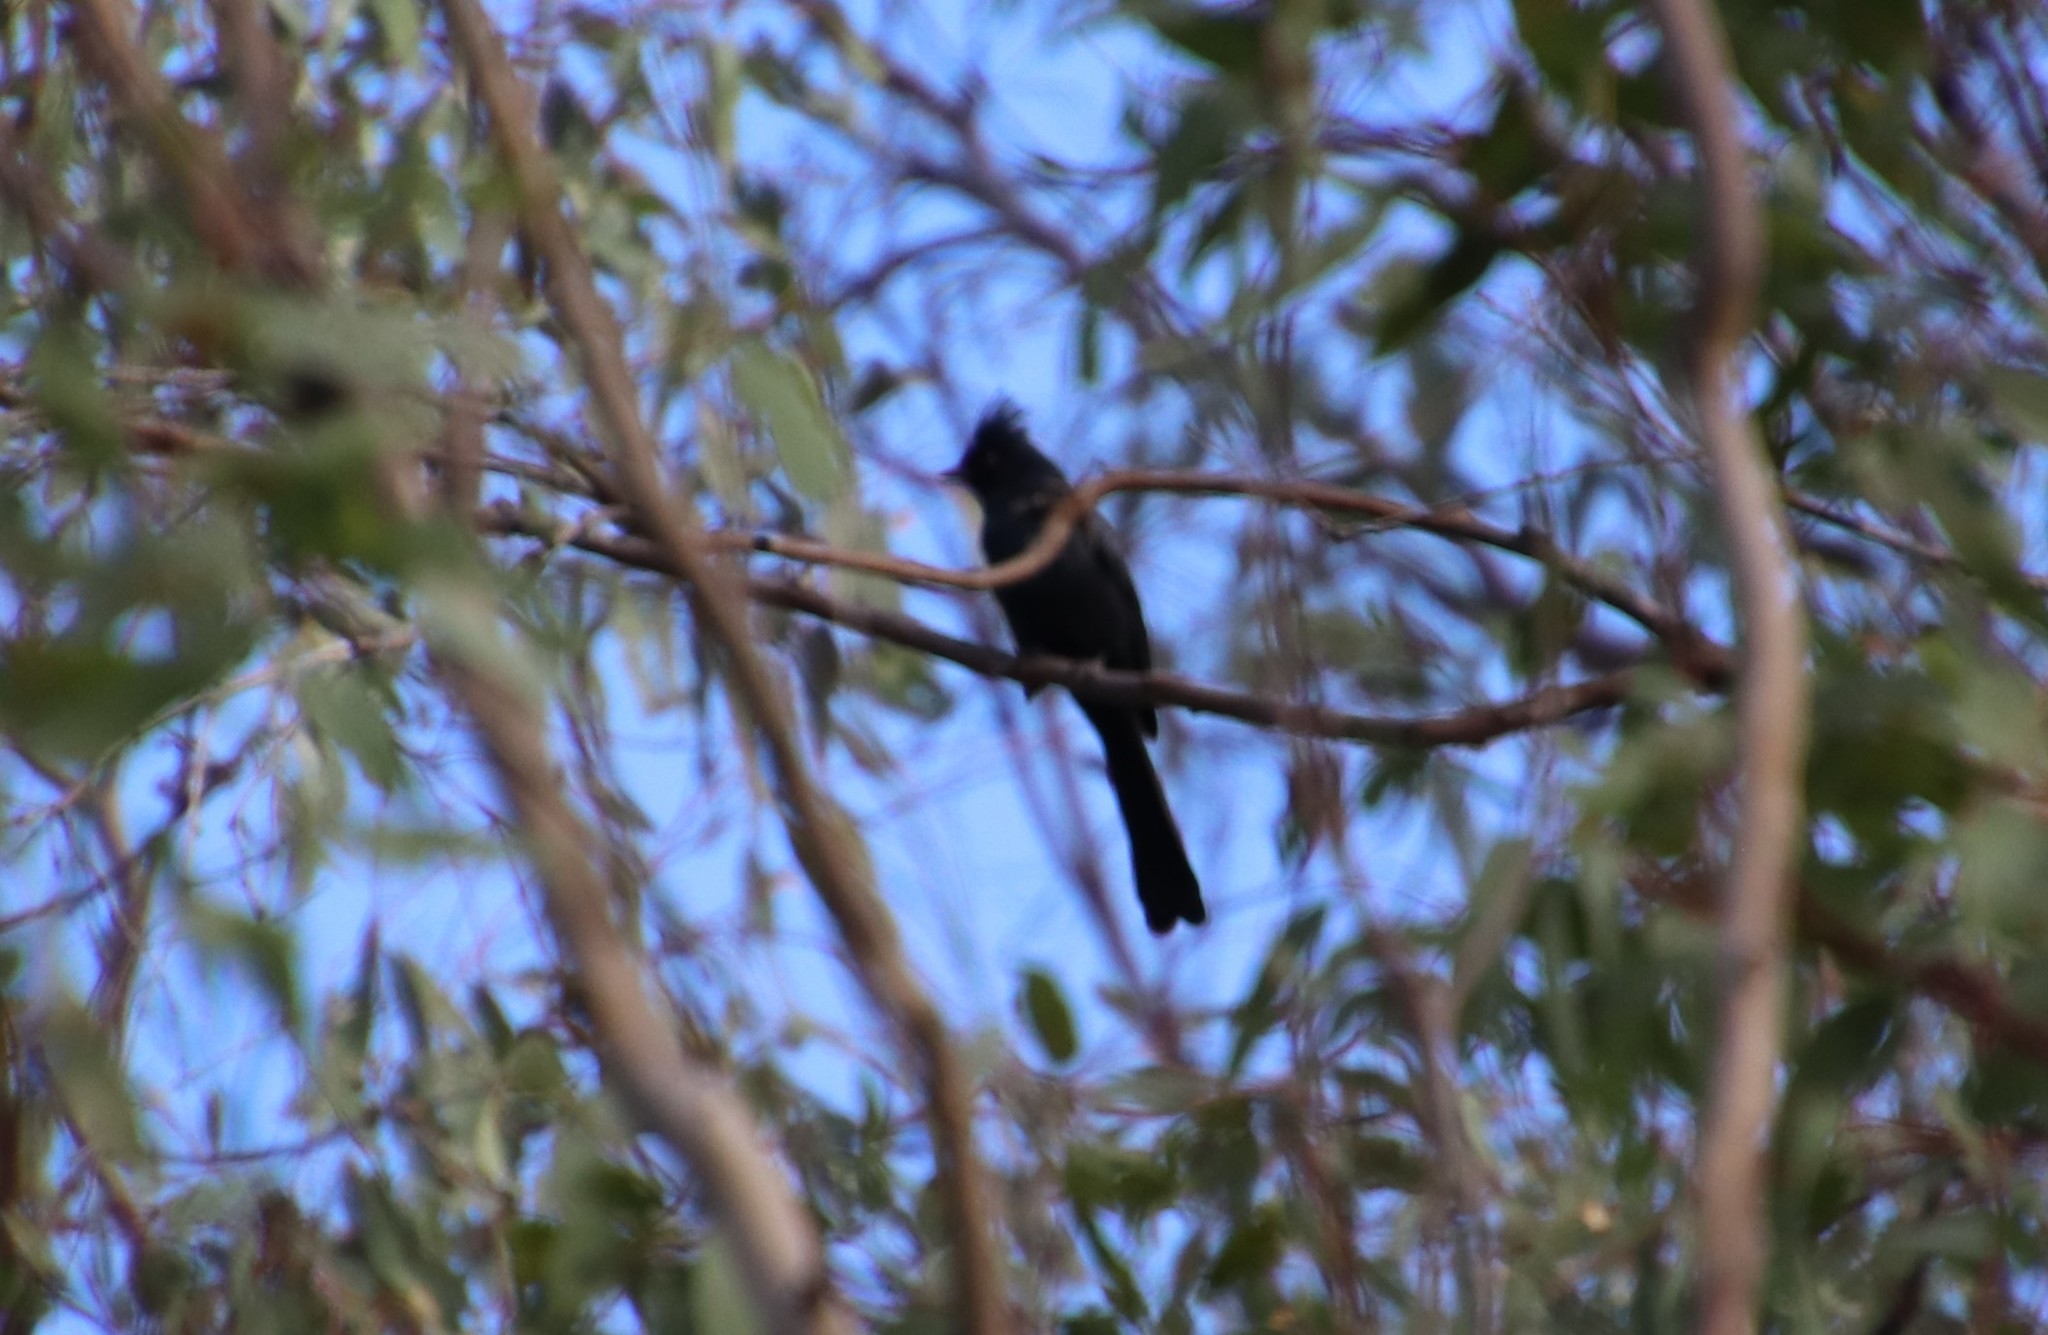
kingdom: Animalia
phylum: Chordata
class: Aves
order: Passeriformes
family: Ptilogonatidae
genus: Phainopepla
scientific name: Phainopepla nitens
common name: Phainopepla
